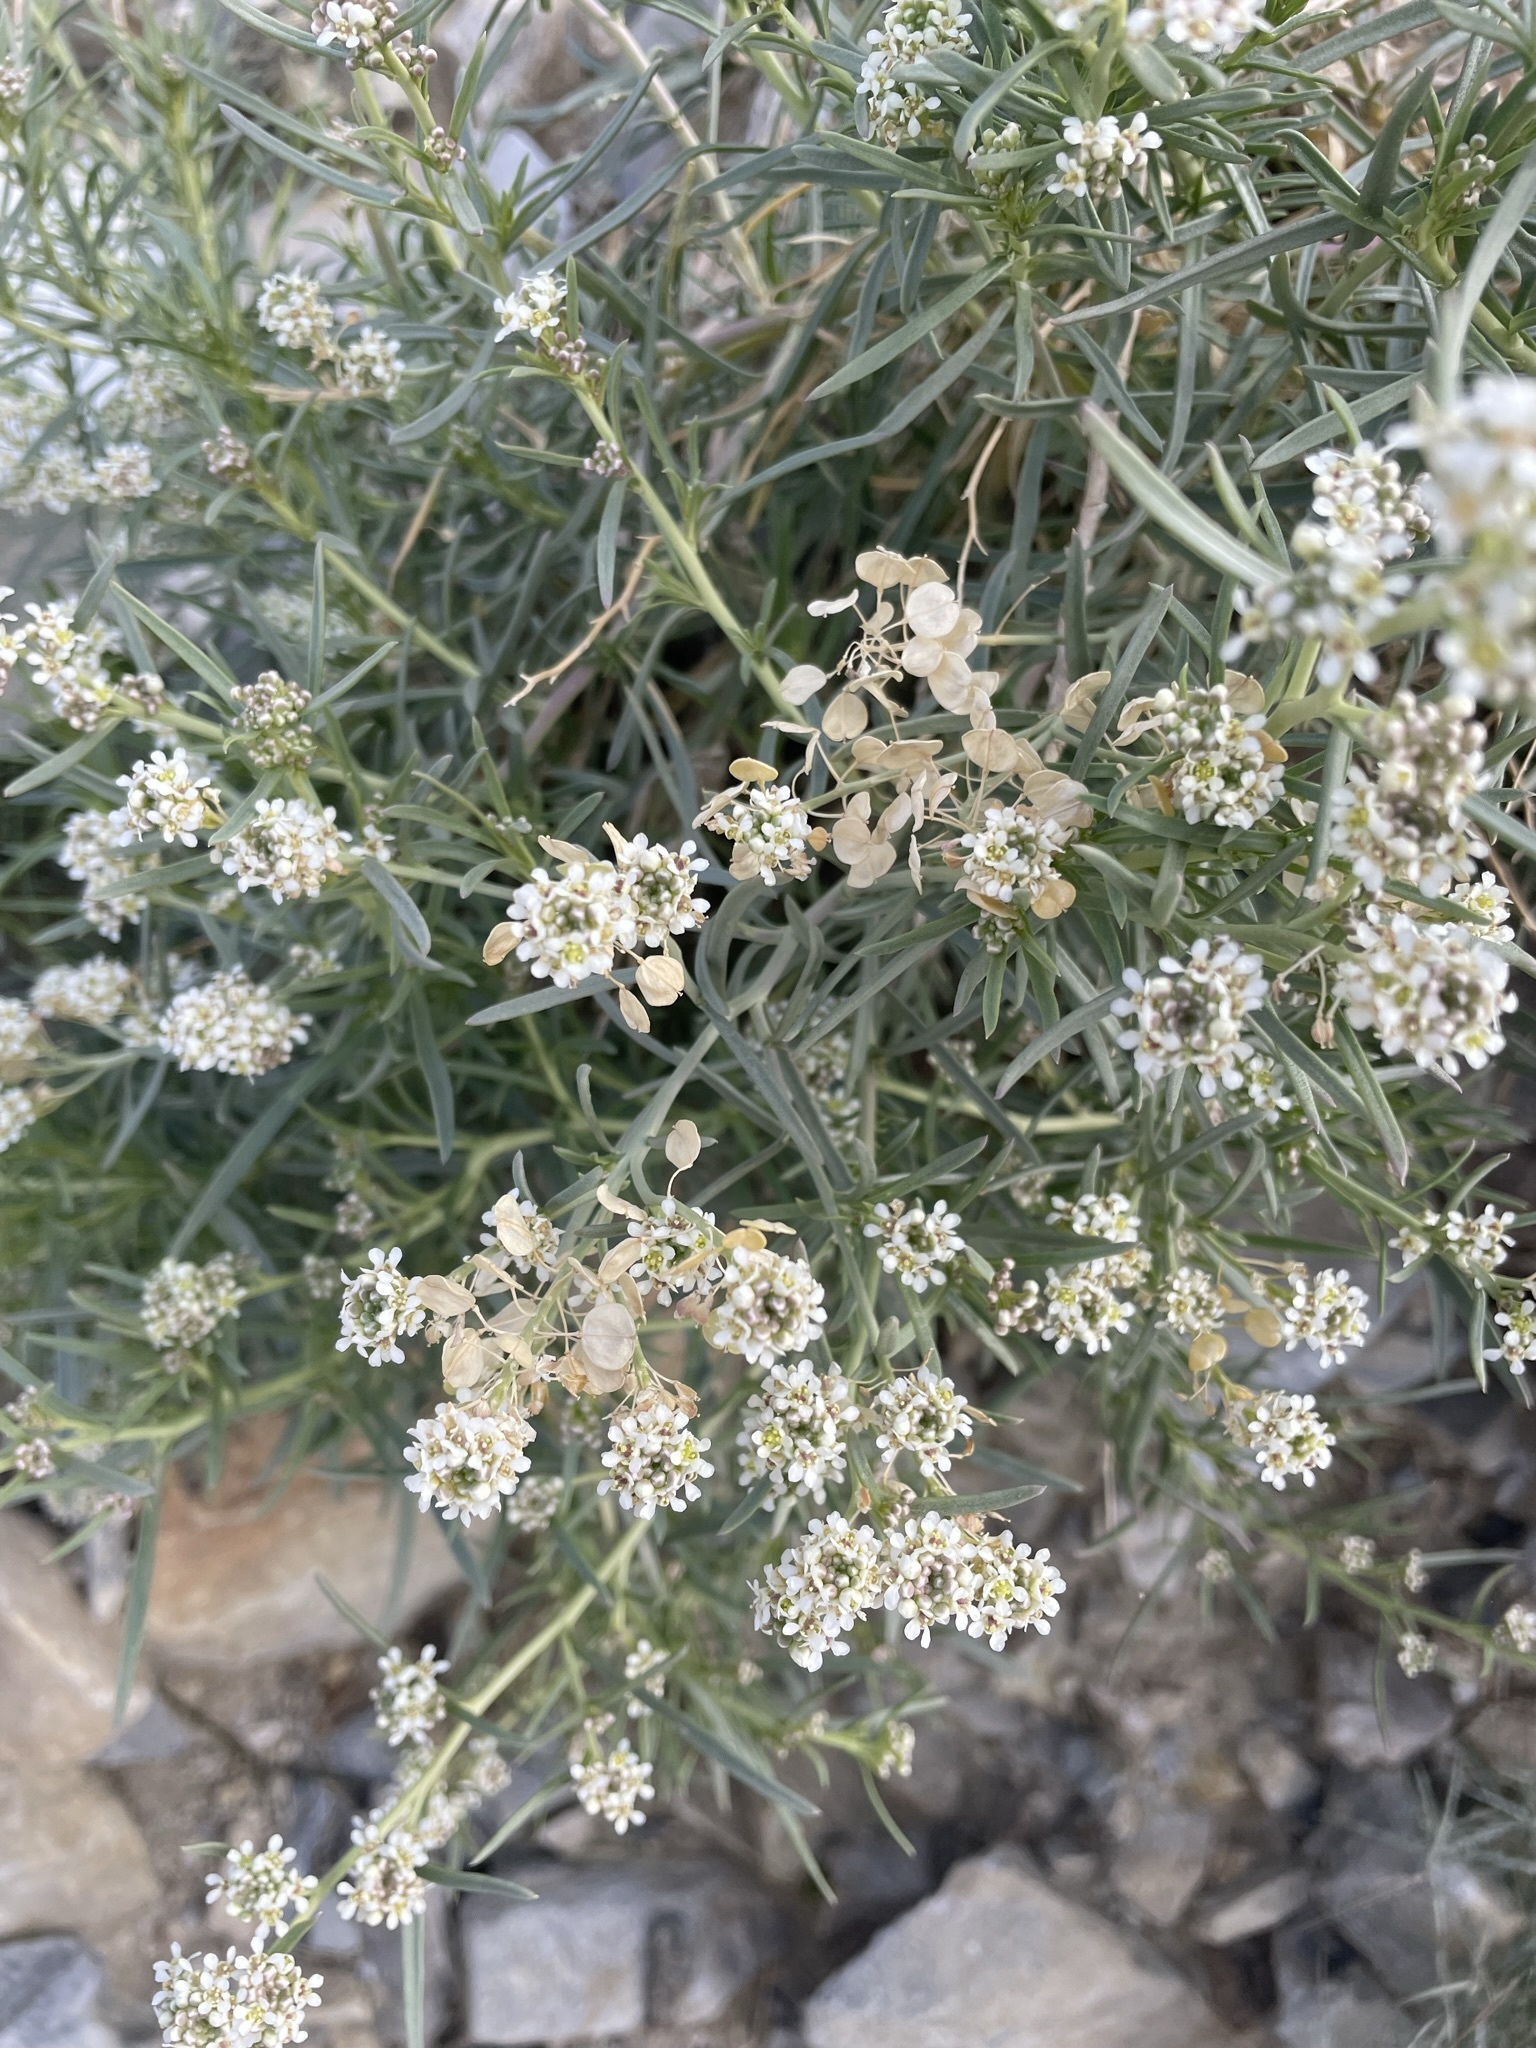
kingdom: Plantae
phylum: Tracheophyta
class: Magnoliopsida
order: Brassicales
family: Brassicaceae
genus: Lepidium
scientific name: Lepidium fremontii
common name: Fremont's pepperwort
